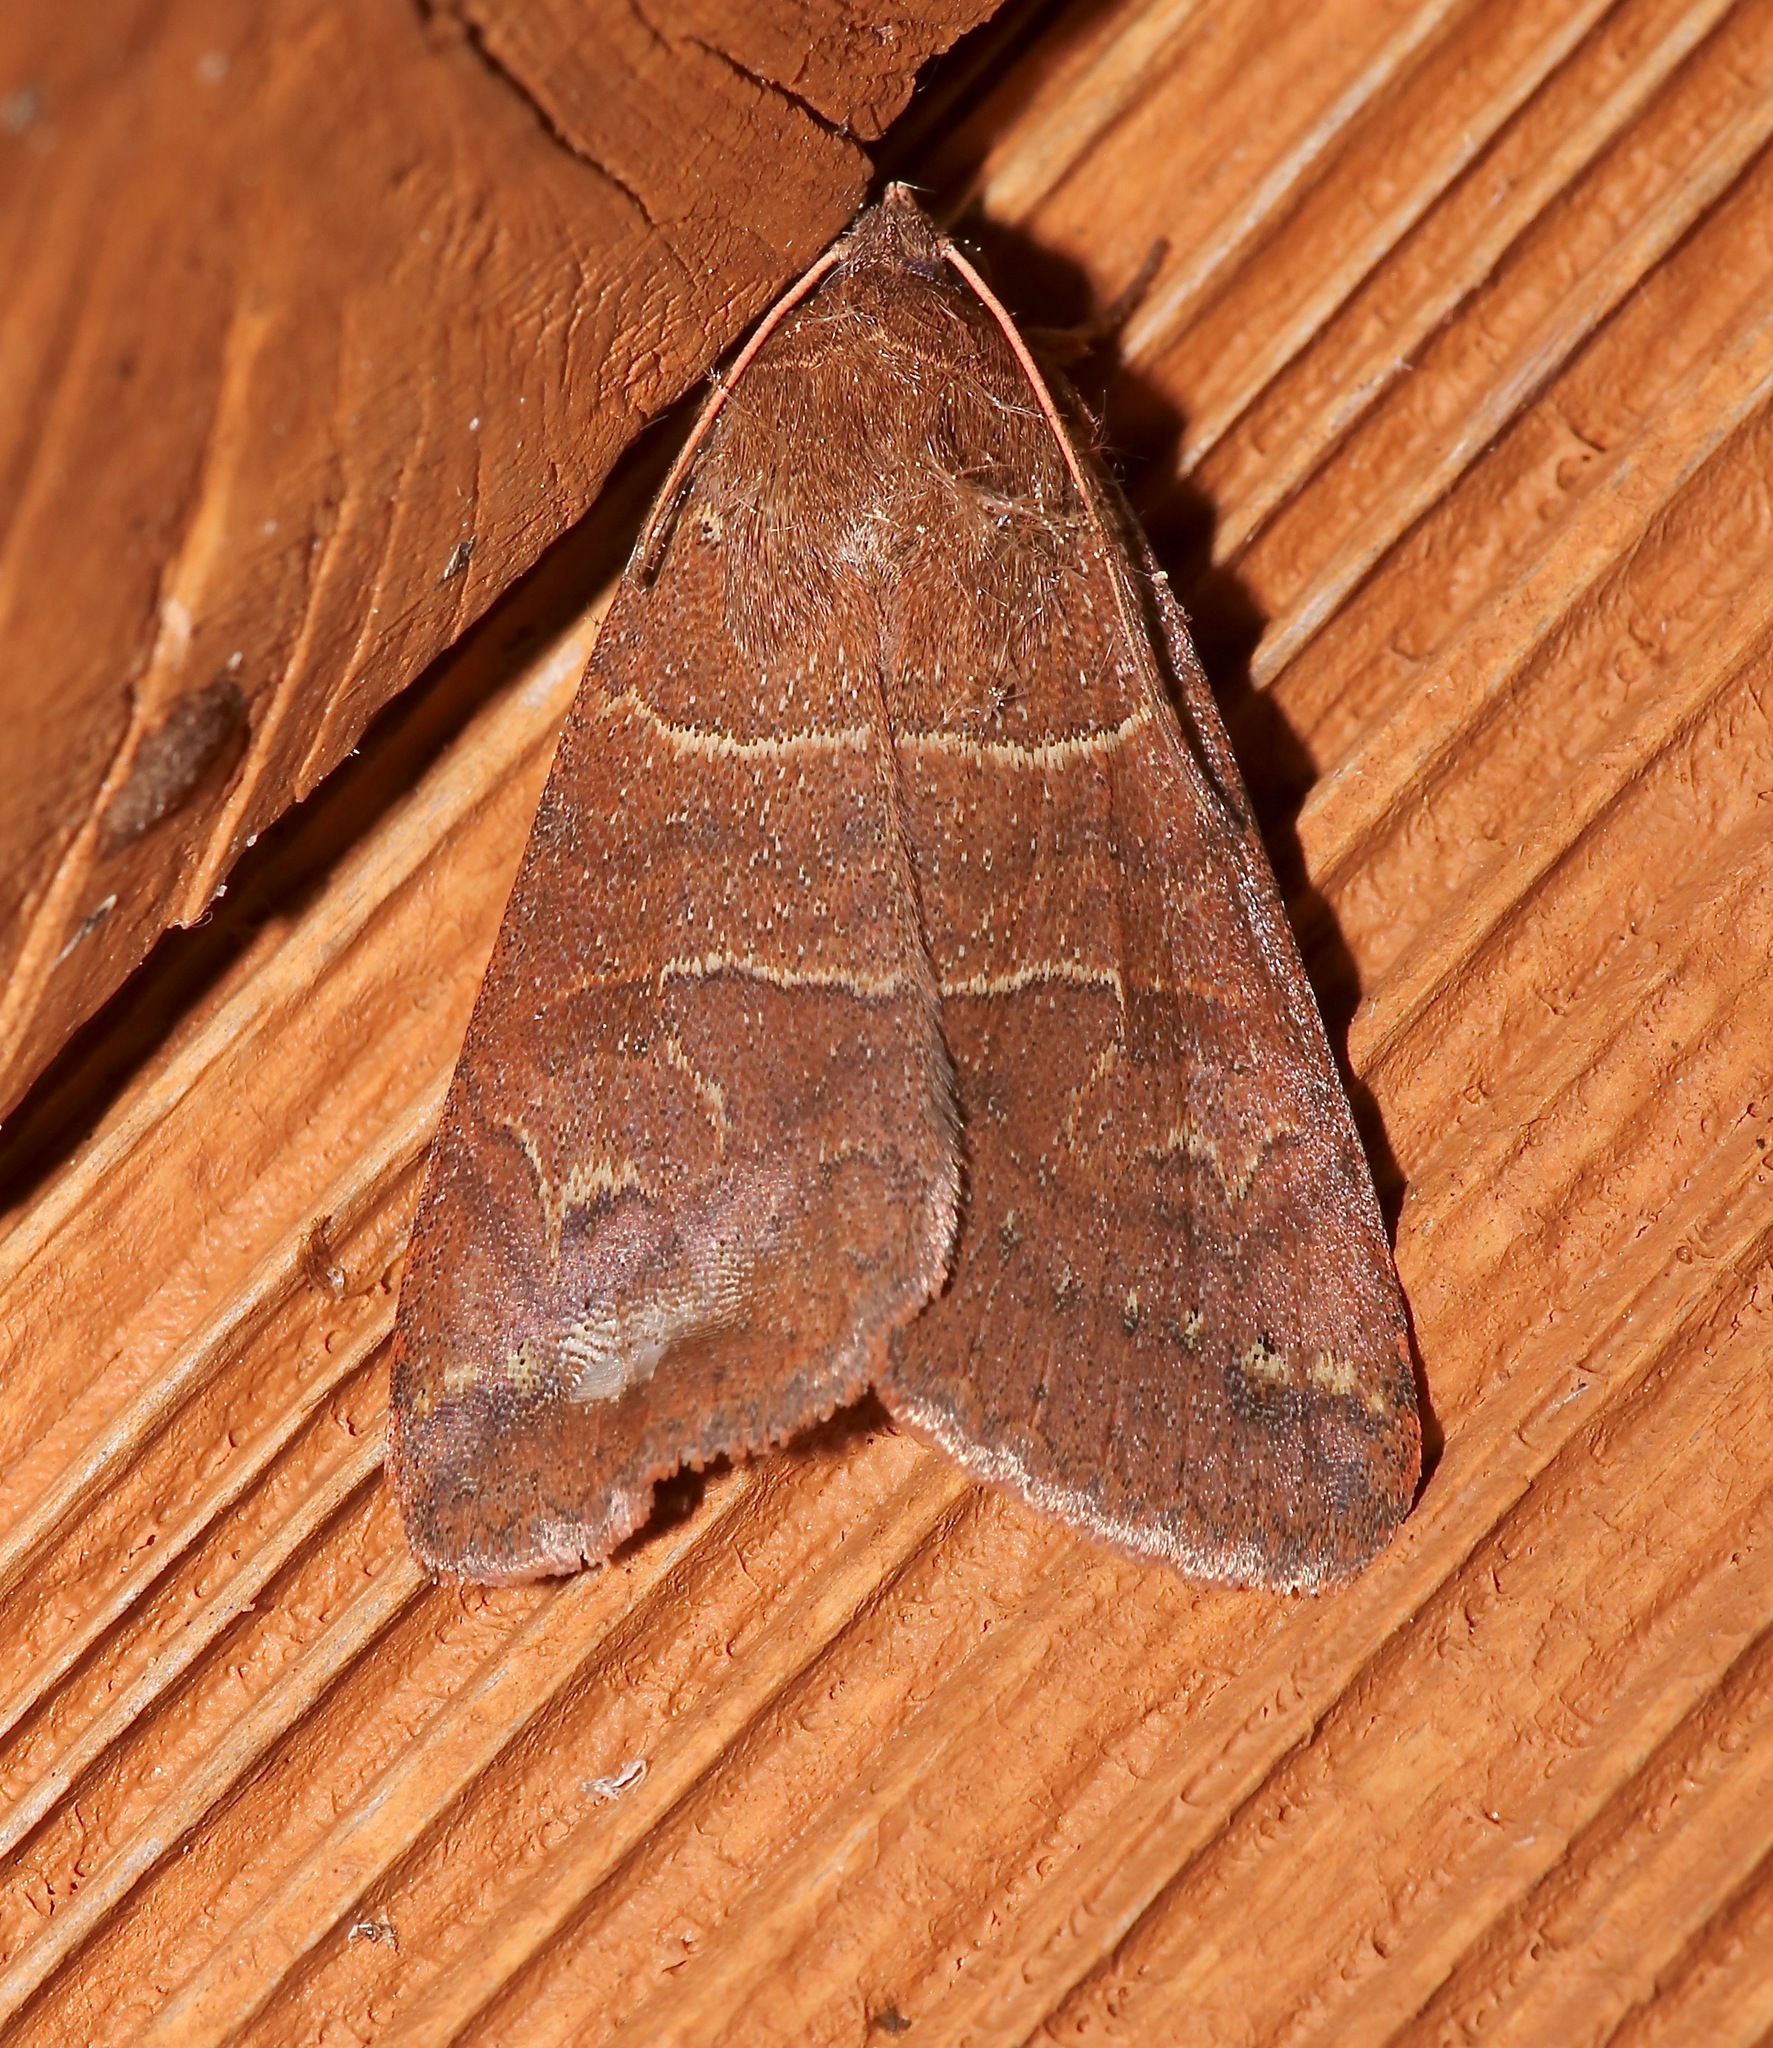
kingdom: Animalia
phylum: Arthropoda
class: Insecta
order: Lepidoptera
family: Erebidae
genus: Cissusa
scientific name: Cissusa spadix
